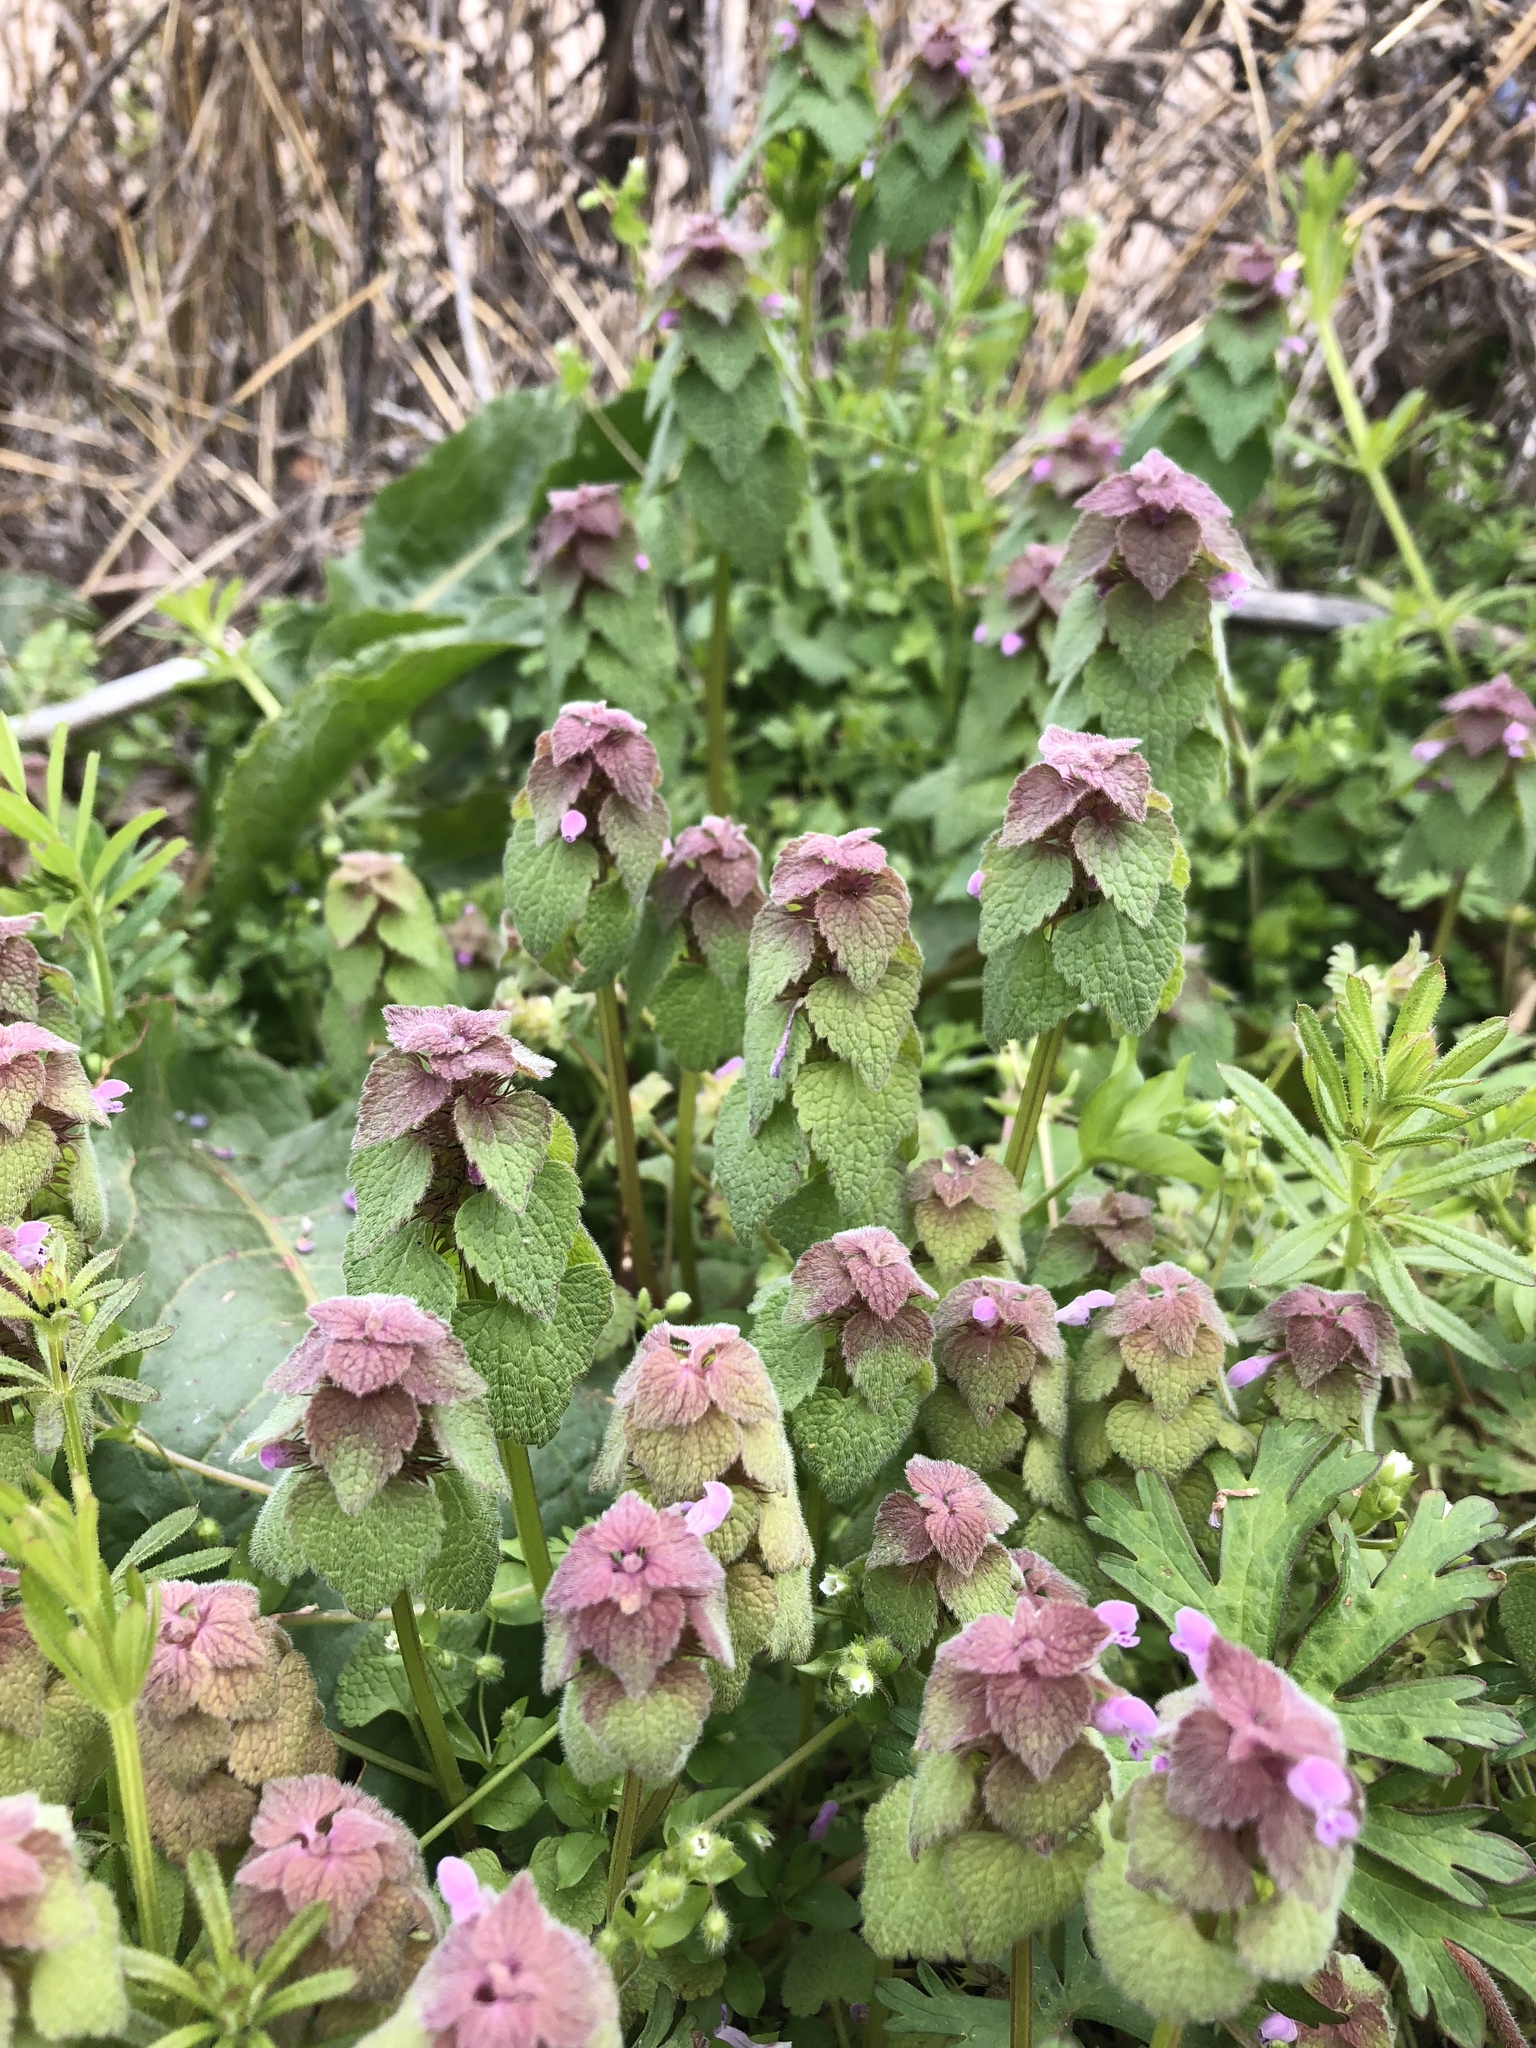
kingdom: Plantae
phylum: Tracheophyta
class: Magnoliopsida
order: Lamiales
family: Lamiaceae
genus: Lamium
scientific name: Lamium purpureum
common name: Red dead-nettle
